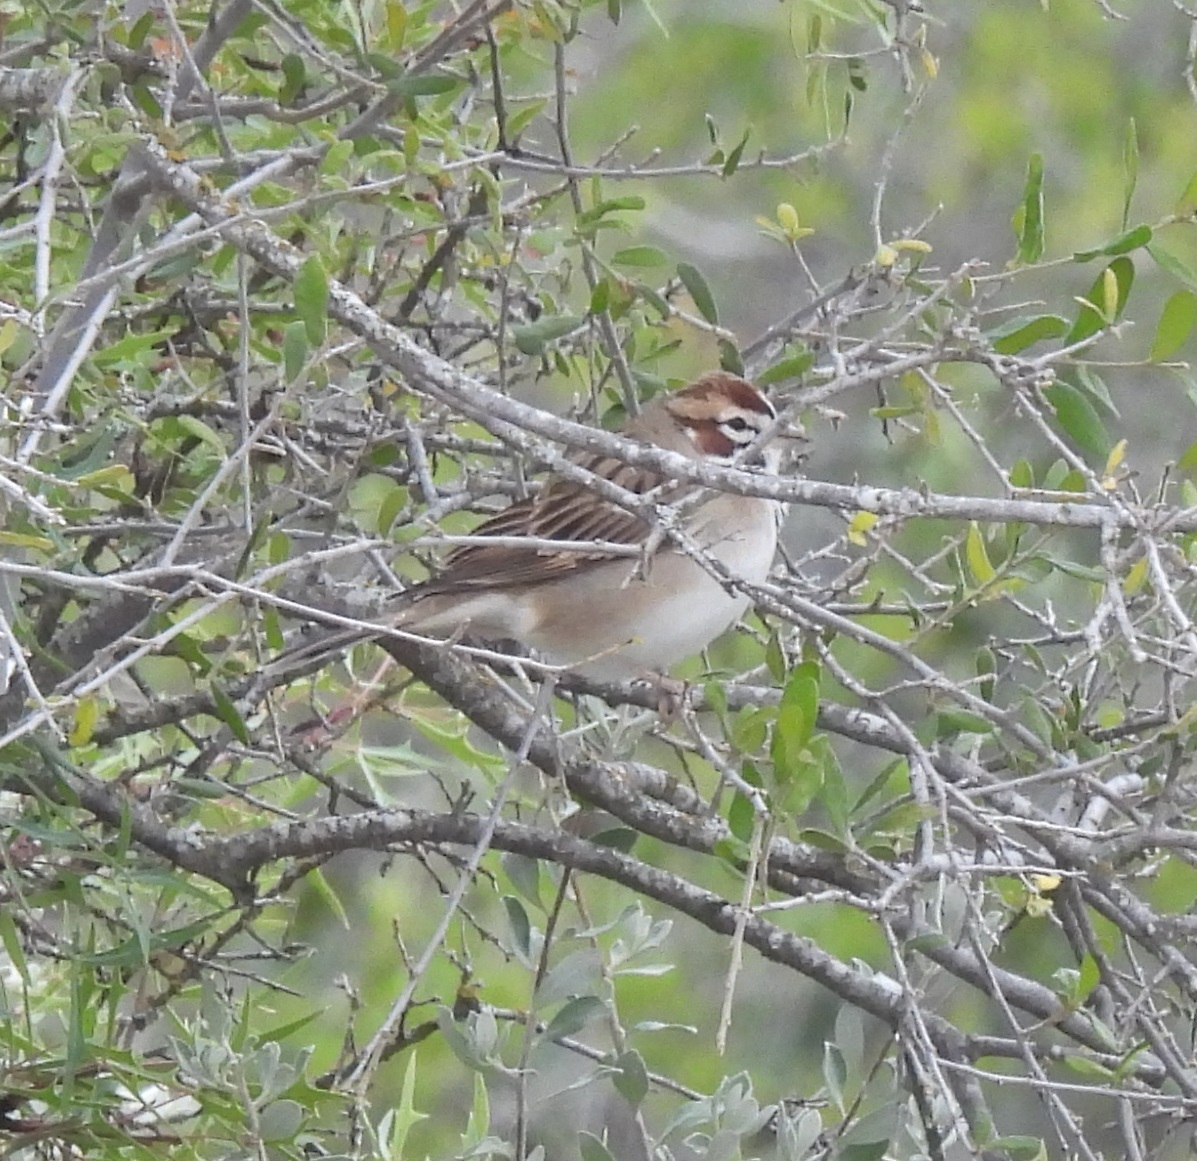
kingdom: Animalia
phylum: Chordata
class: Aves
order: Passeriformes
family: Passerellidae
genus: Chondestes
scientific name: Chondestes grammacus
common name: Lark sparrow
